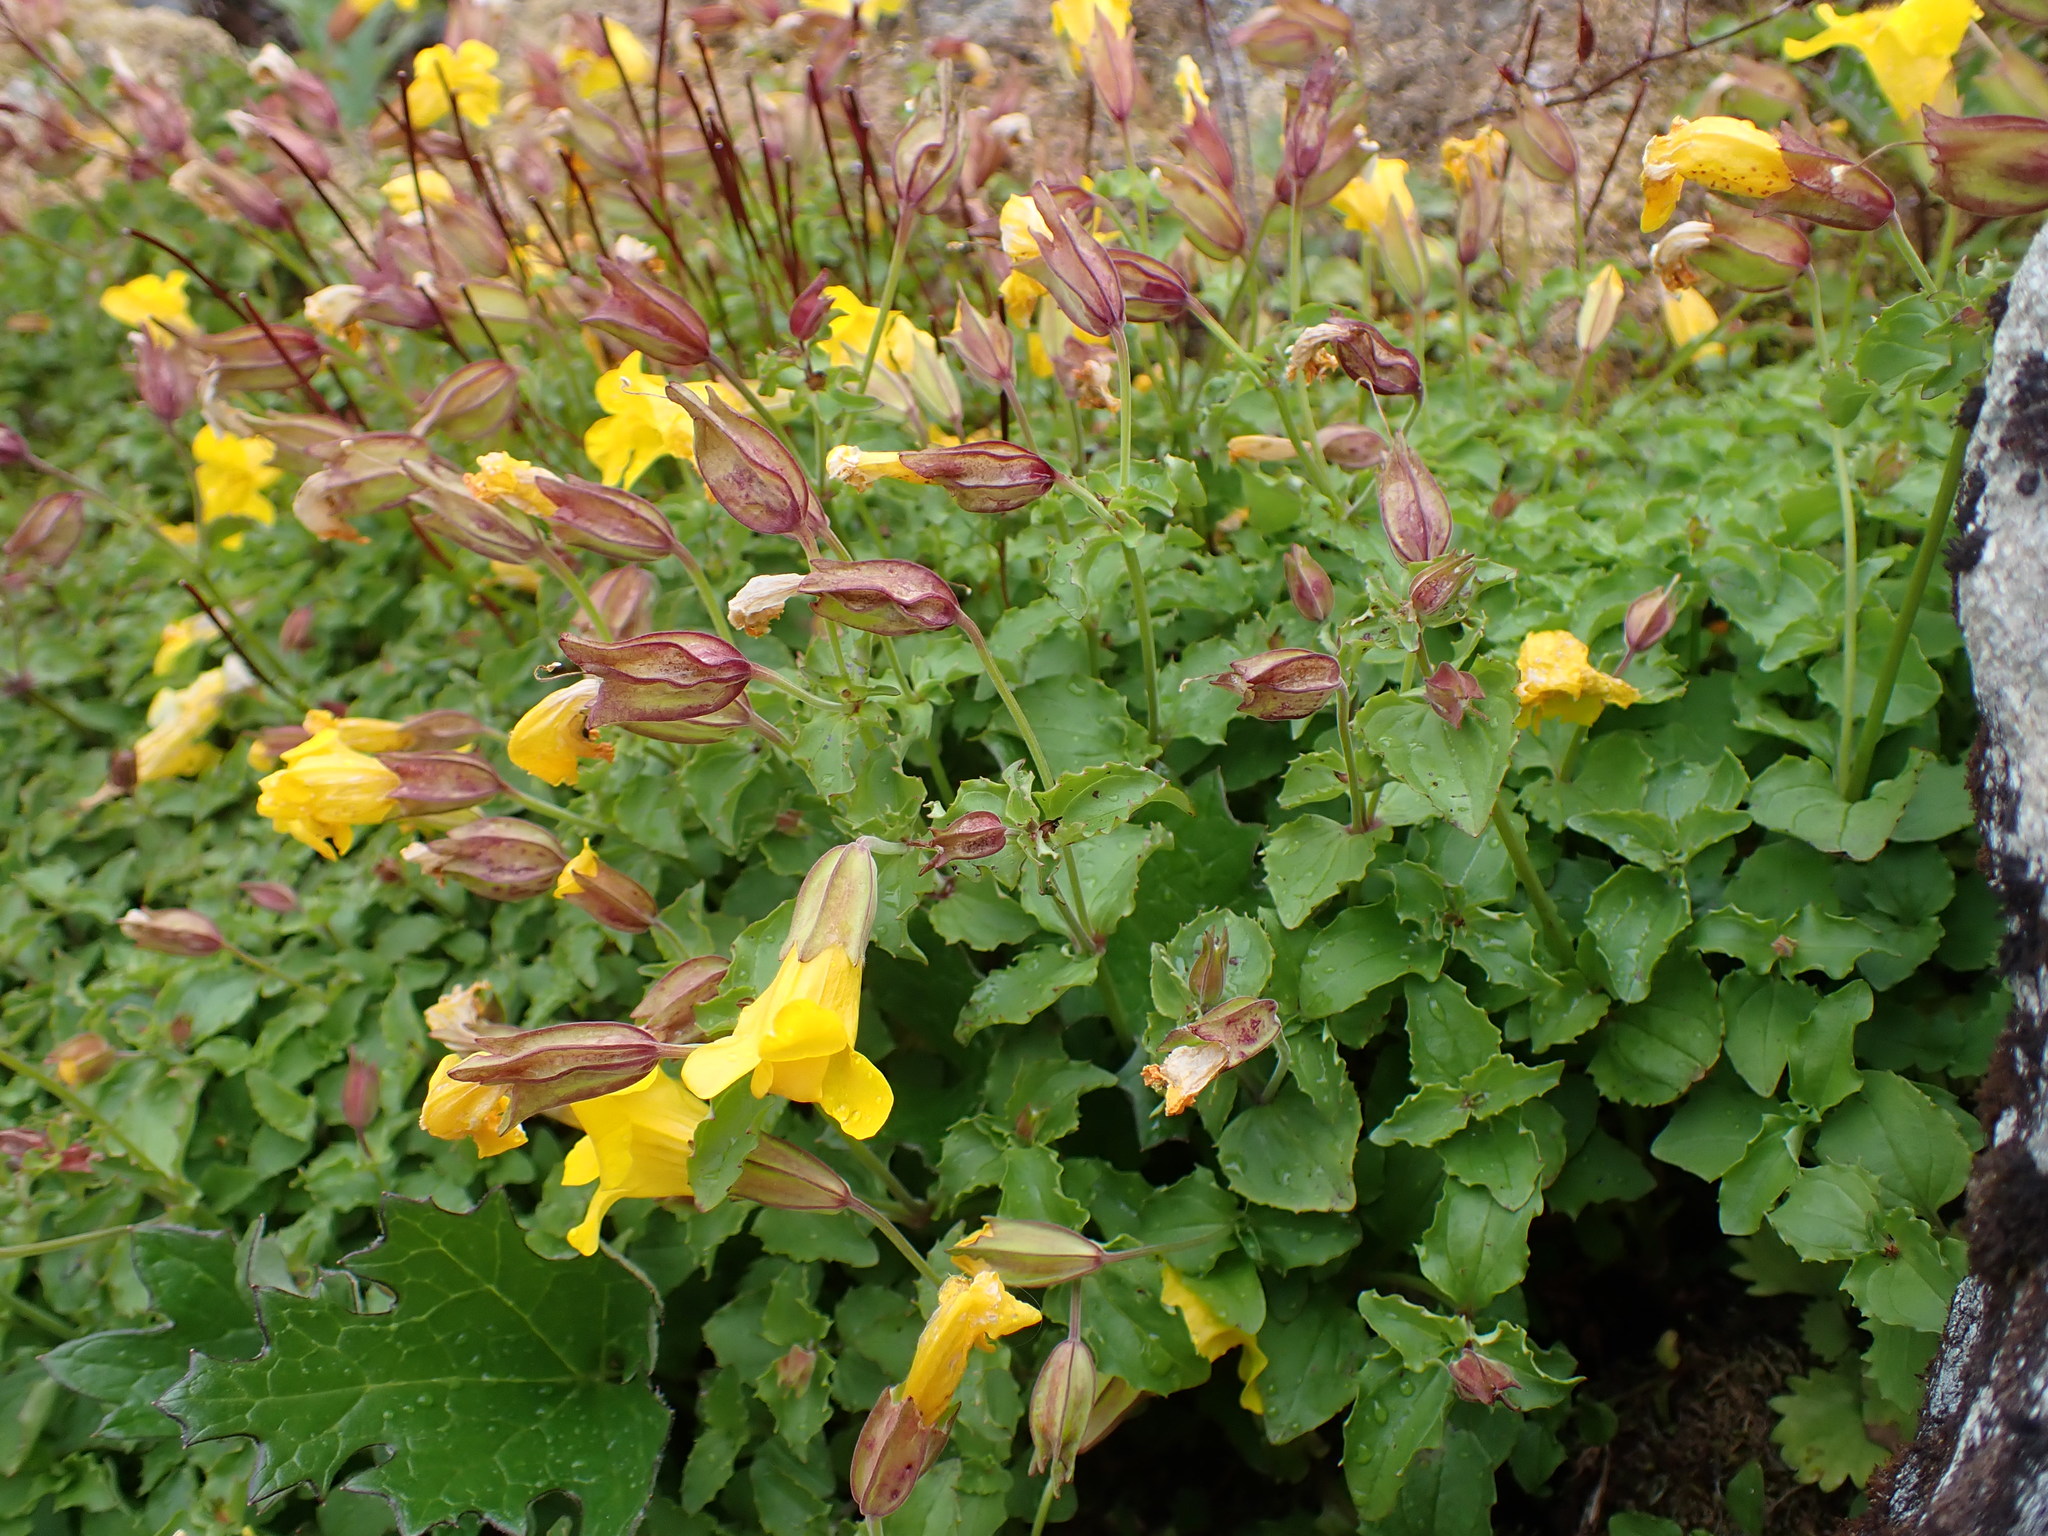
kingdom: Plantae
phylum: Tracheophyta
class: Magnoliopsida
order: Lamiales
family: Phrymaceae
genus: Erythranthe
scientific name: Erythranthe veronicifolia
